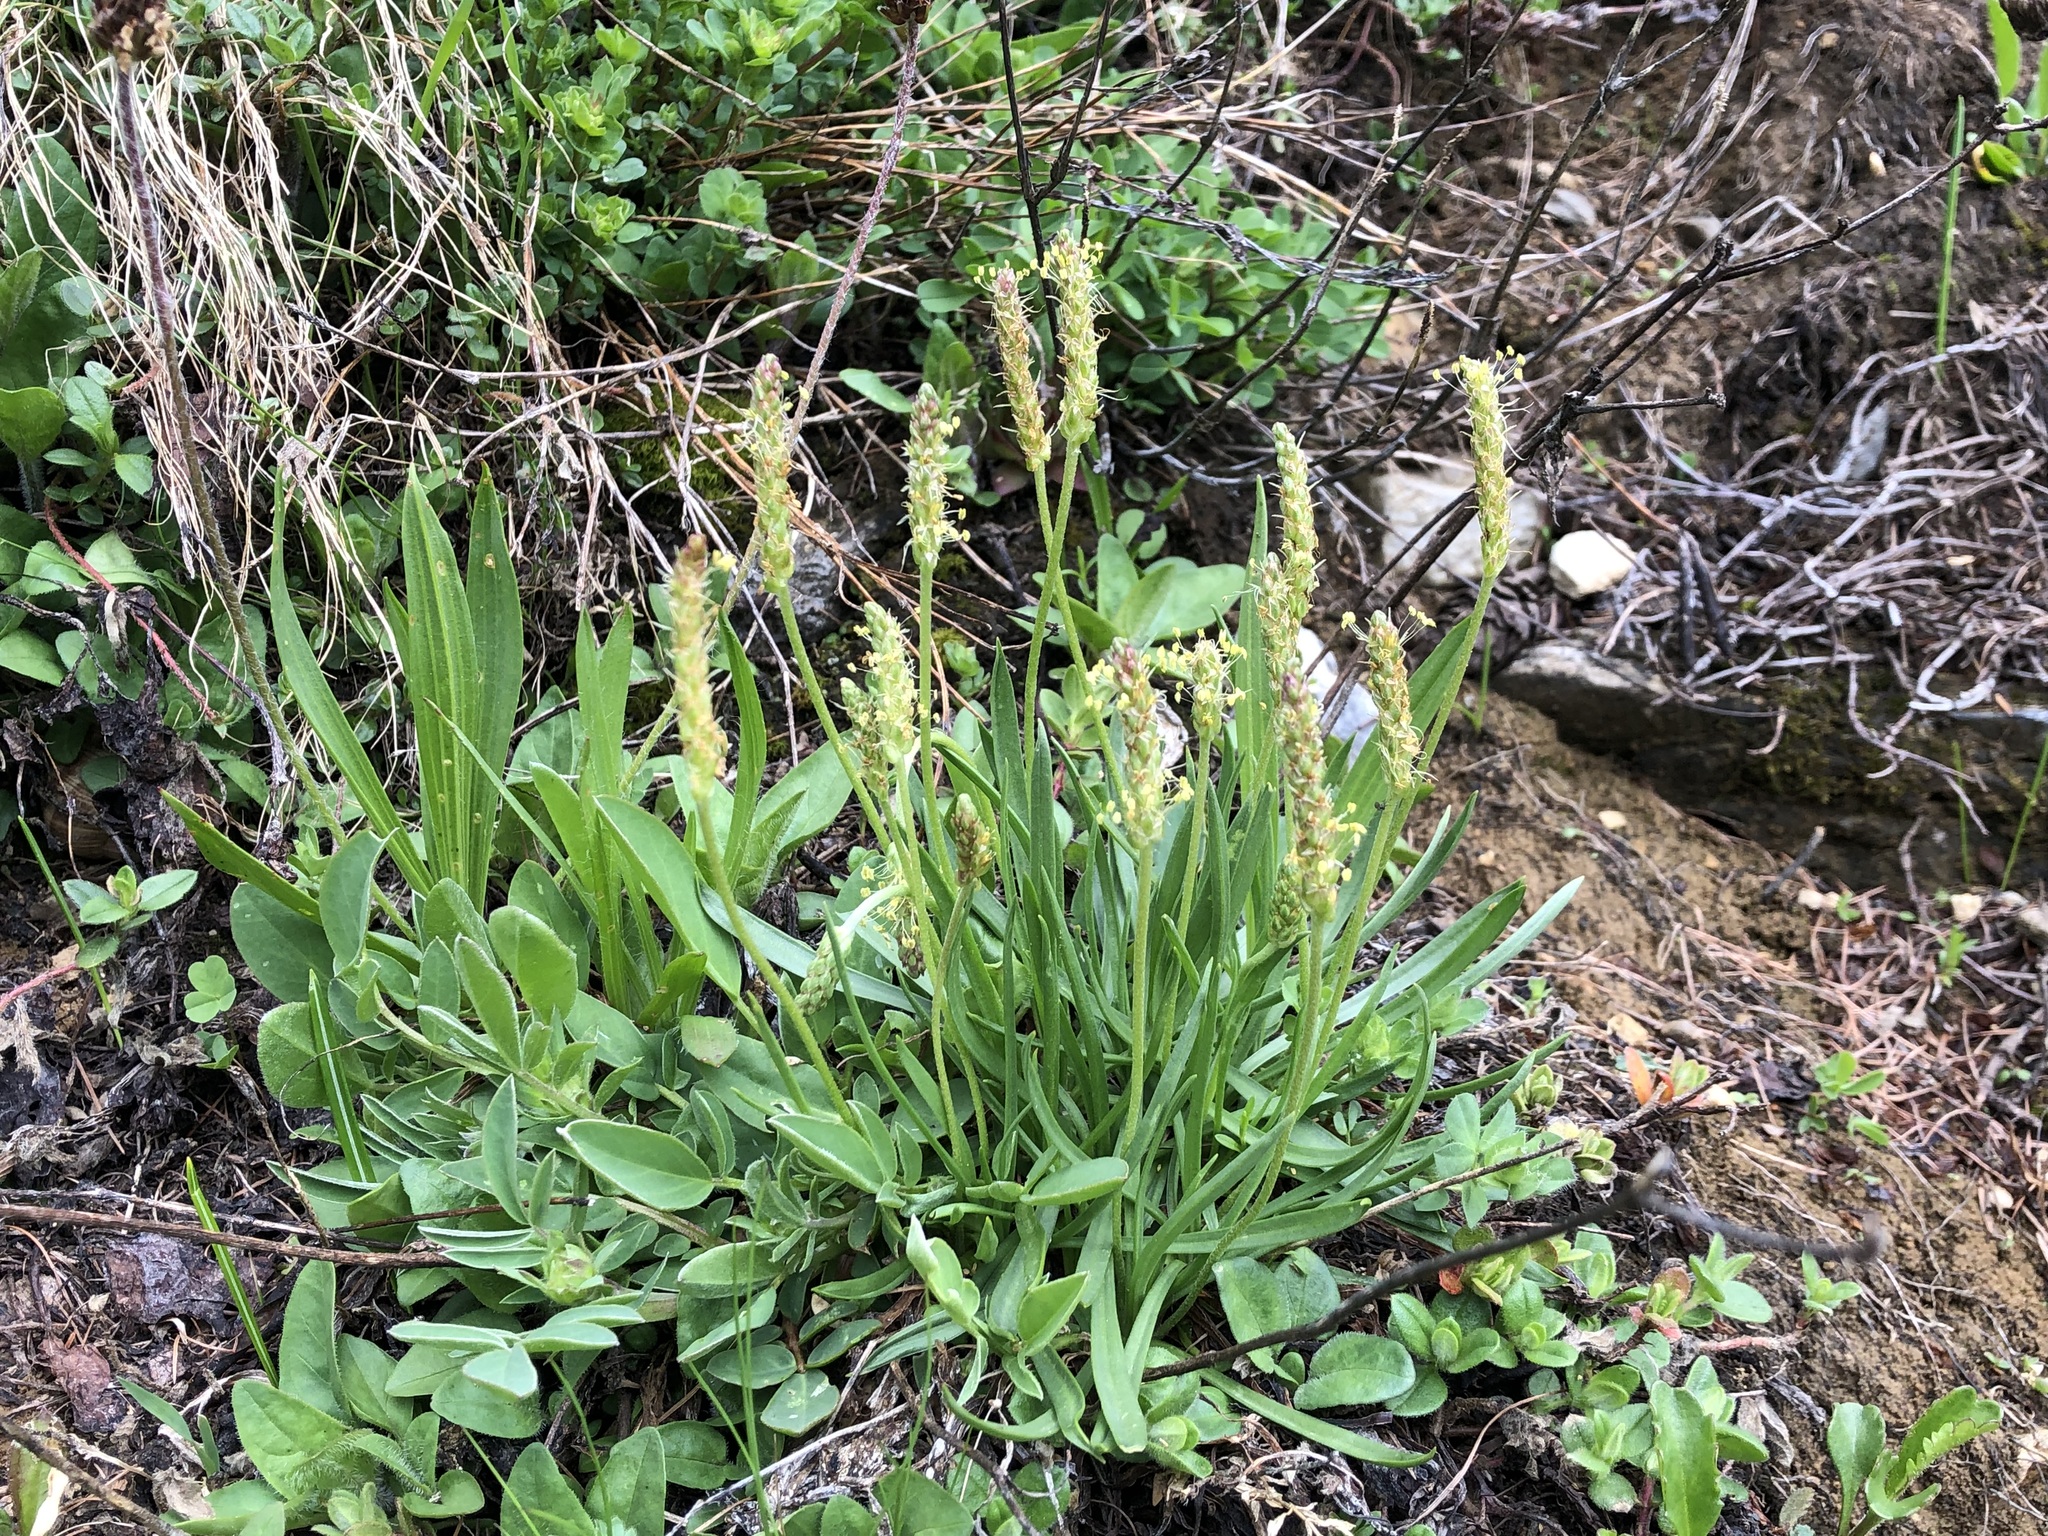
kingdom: Plantae
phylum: Tracheophyta
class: Magnoliopsida
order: Lamiales
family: Plantaginaceae
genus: Plantago
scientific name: Plantago alpina
